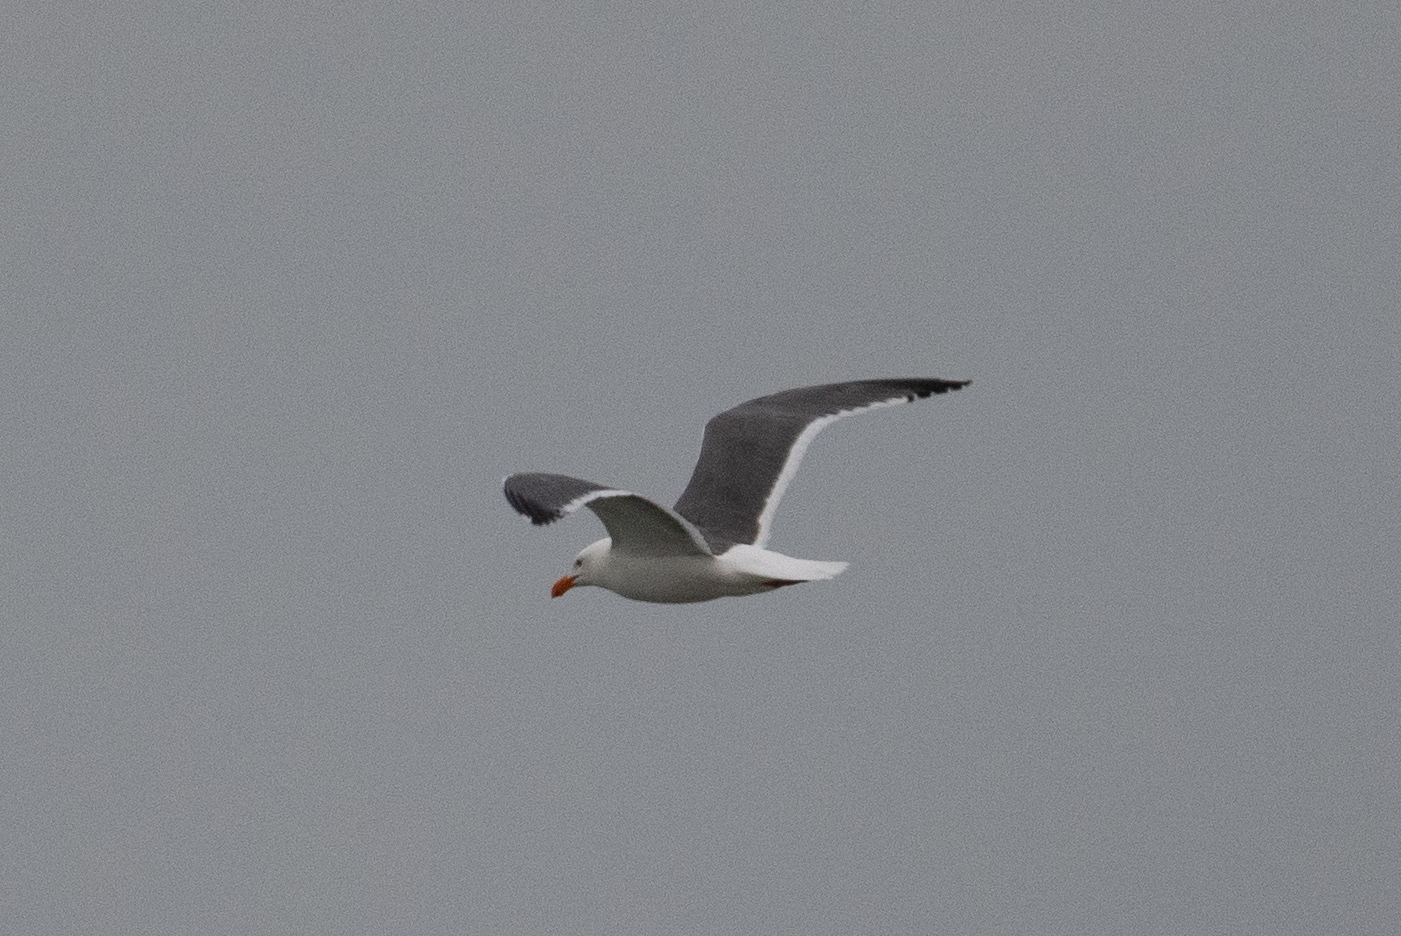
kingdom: Animalia
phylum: Chordata
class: Aves
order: Charadriiformes
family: Laridae
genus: Larus
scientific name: Larus occidentalis
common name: Western gull
